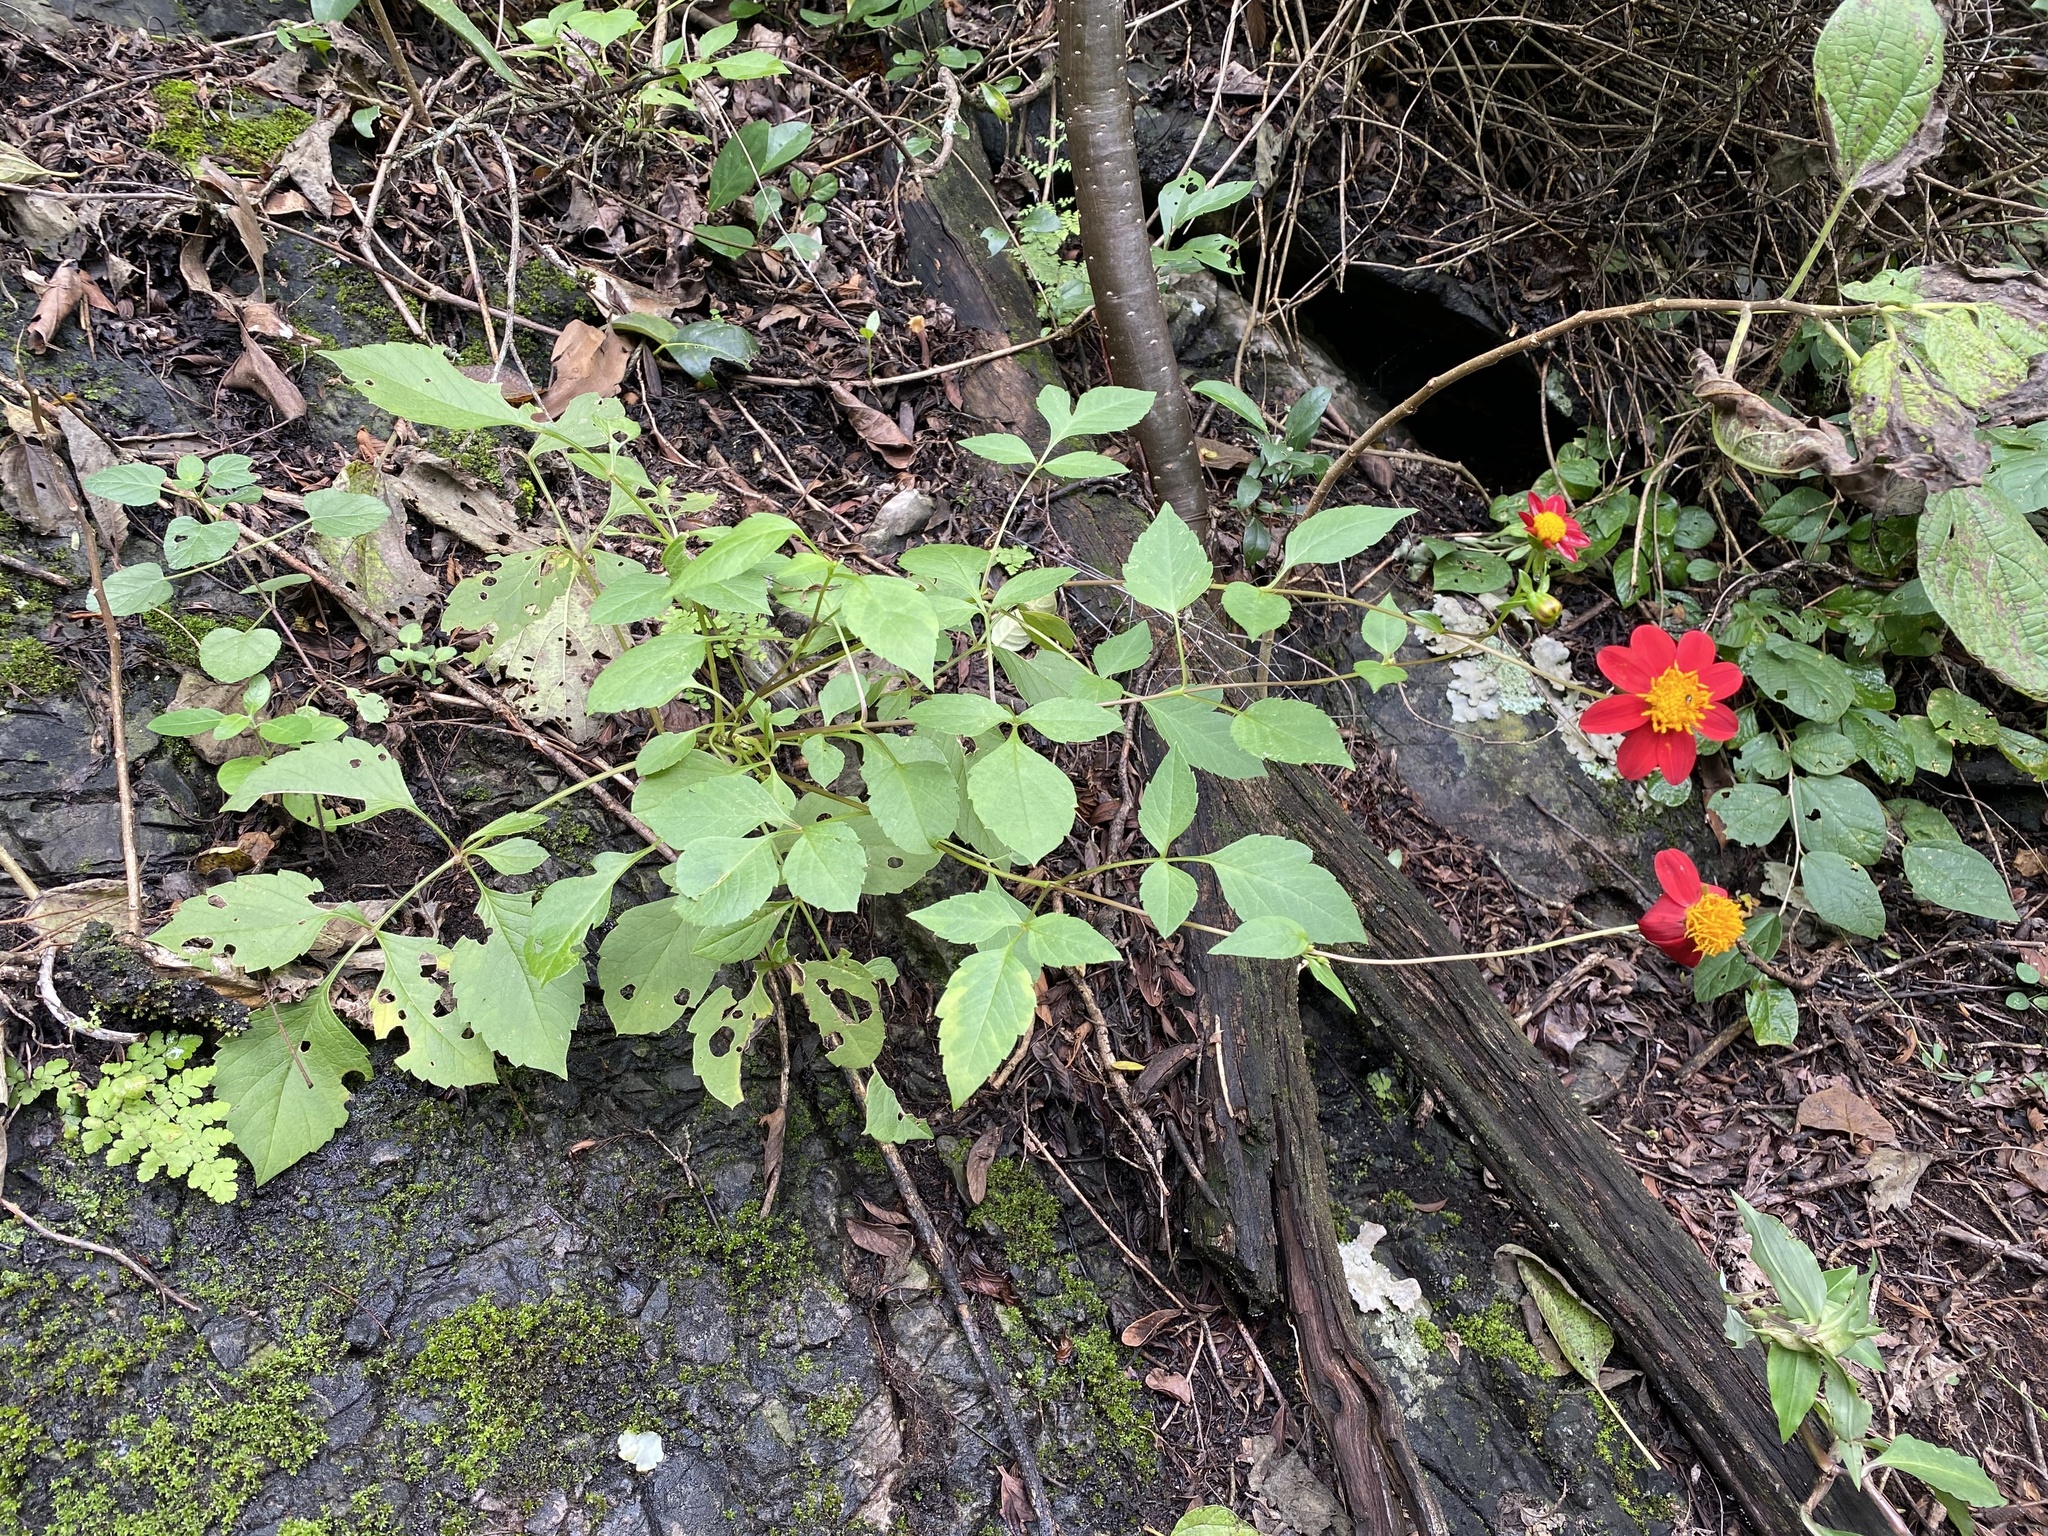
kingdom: Plantae
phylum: Tracheophyta
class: Magnoliopsida
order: Asterales
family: Asteraceae
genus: Dahlia
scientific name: Dahlia coccinea
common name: Red dahlia
